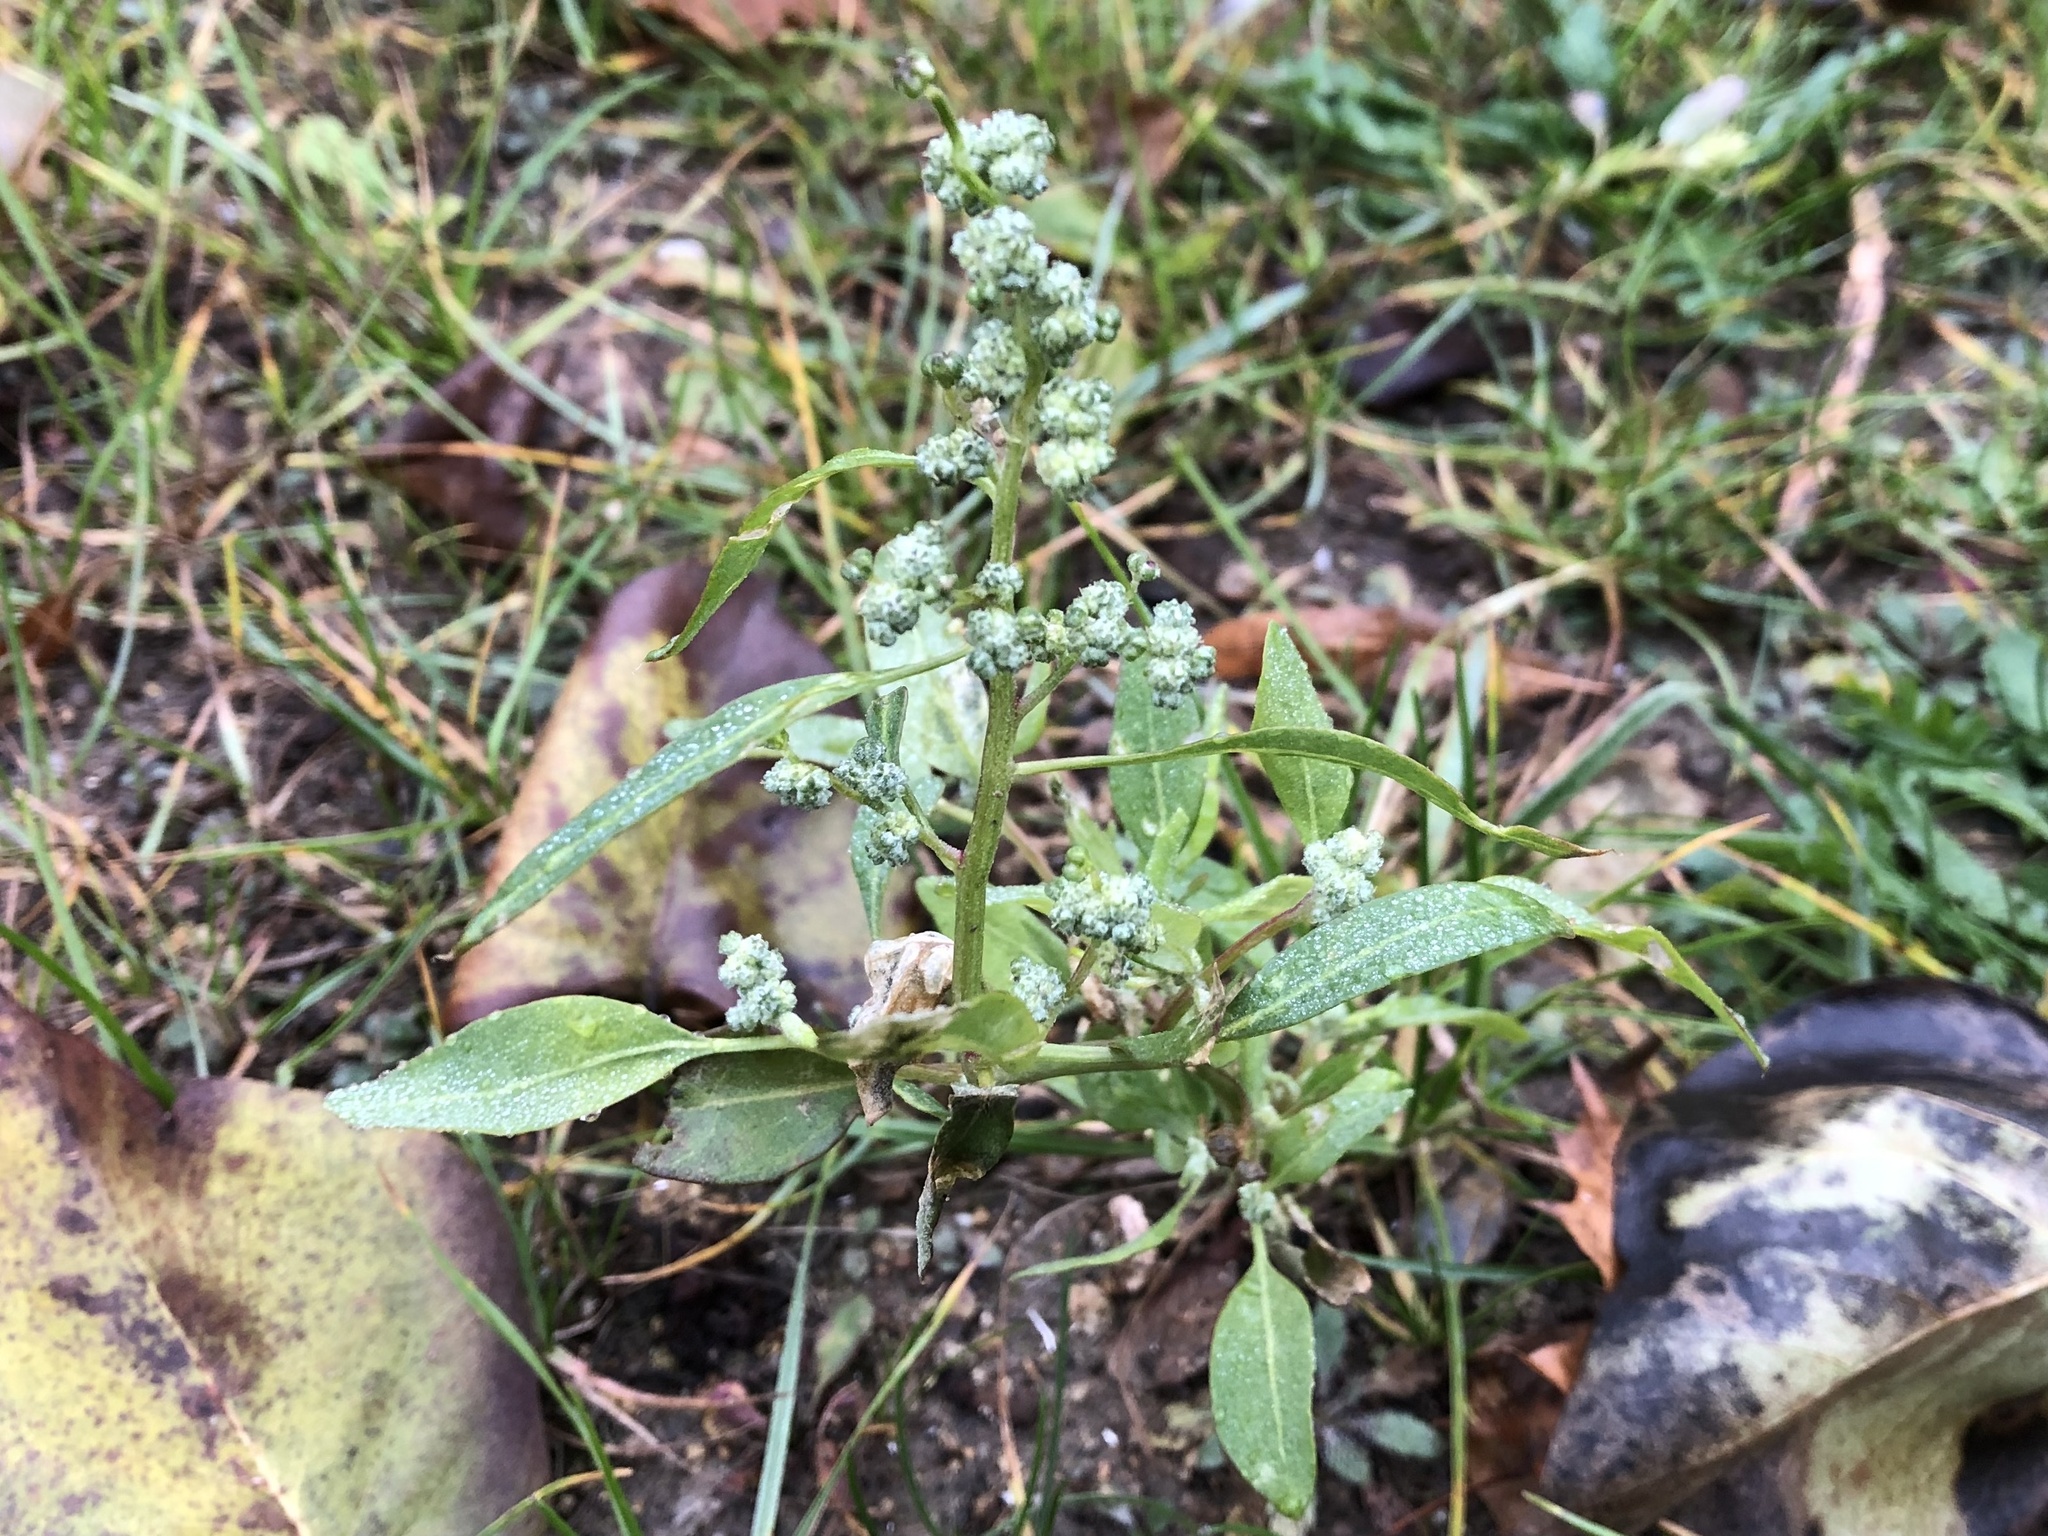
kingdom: Plantae
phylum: Tracheophyta
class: Magnoliopsida
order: Caryophyllales
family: Amaranthaceae
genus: Chenopodium
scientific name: Chenopodium album
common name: Fat-hen
